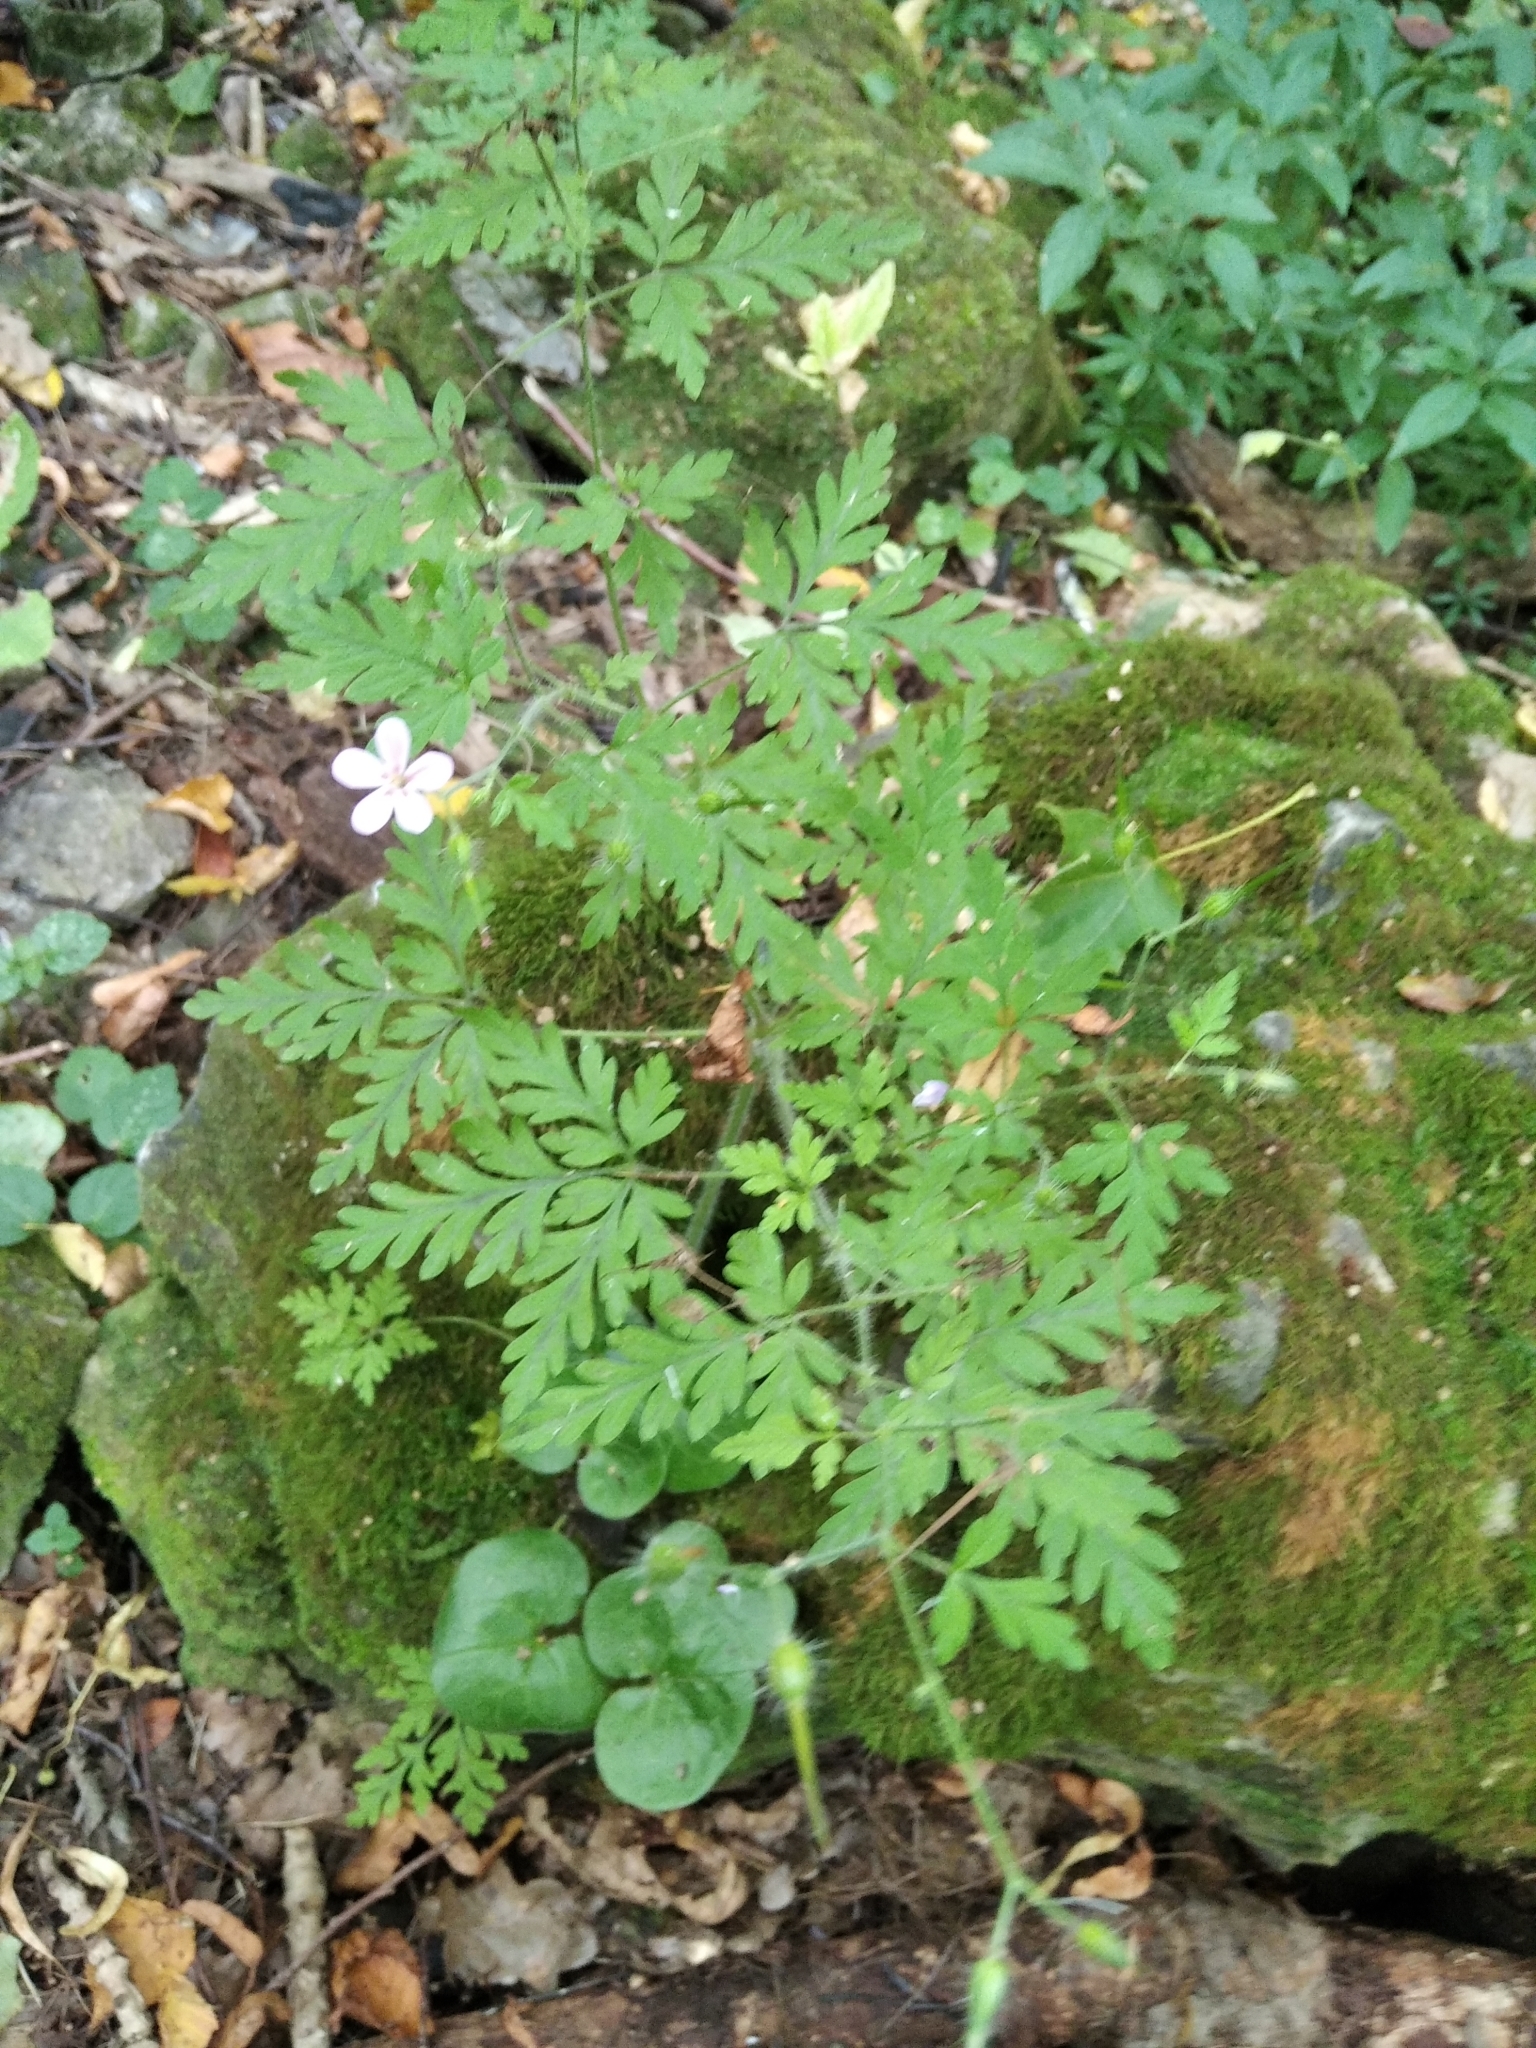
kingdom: Plantae
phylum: Tracheophyta
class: Magnoliopsida
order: Geraniales
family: Geraniaceae
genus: Geranium
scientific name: Geranium robertianum
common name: Herb-robert
